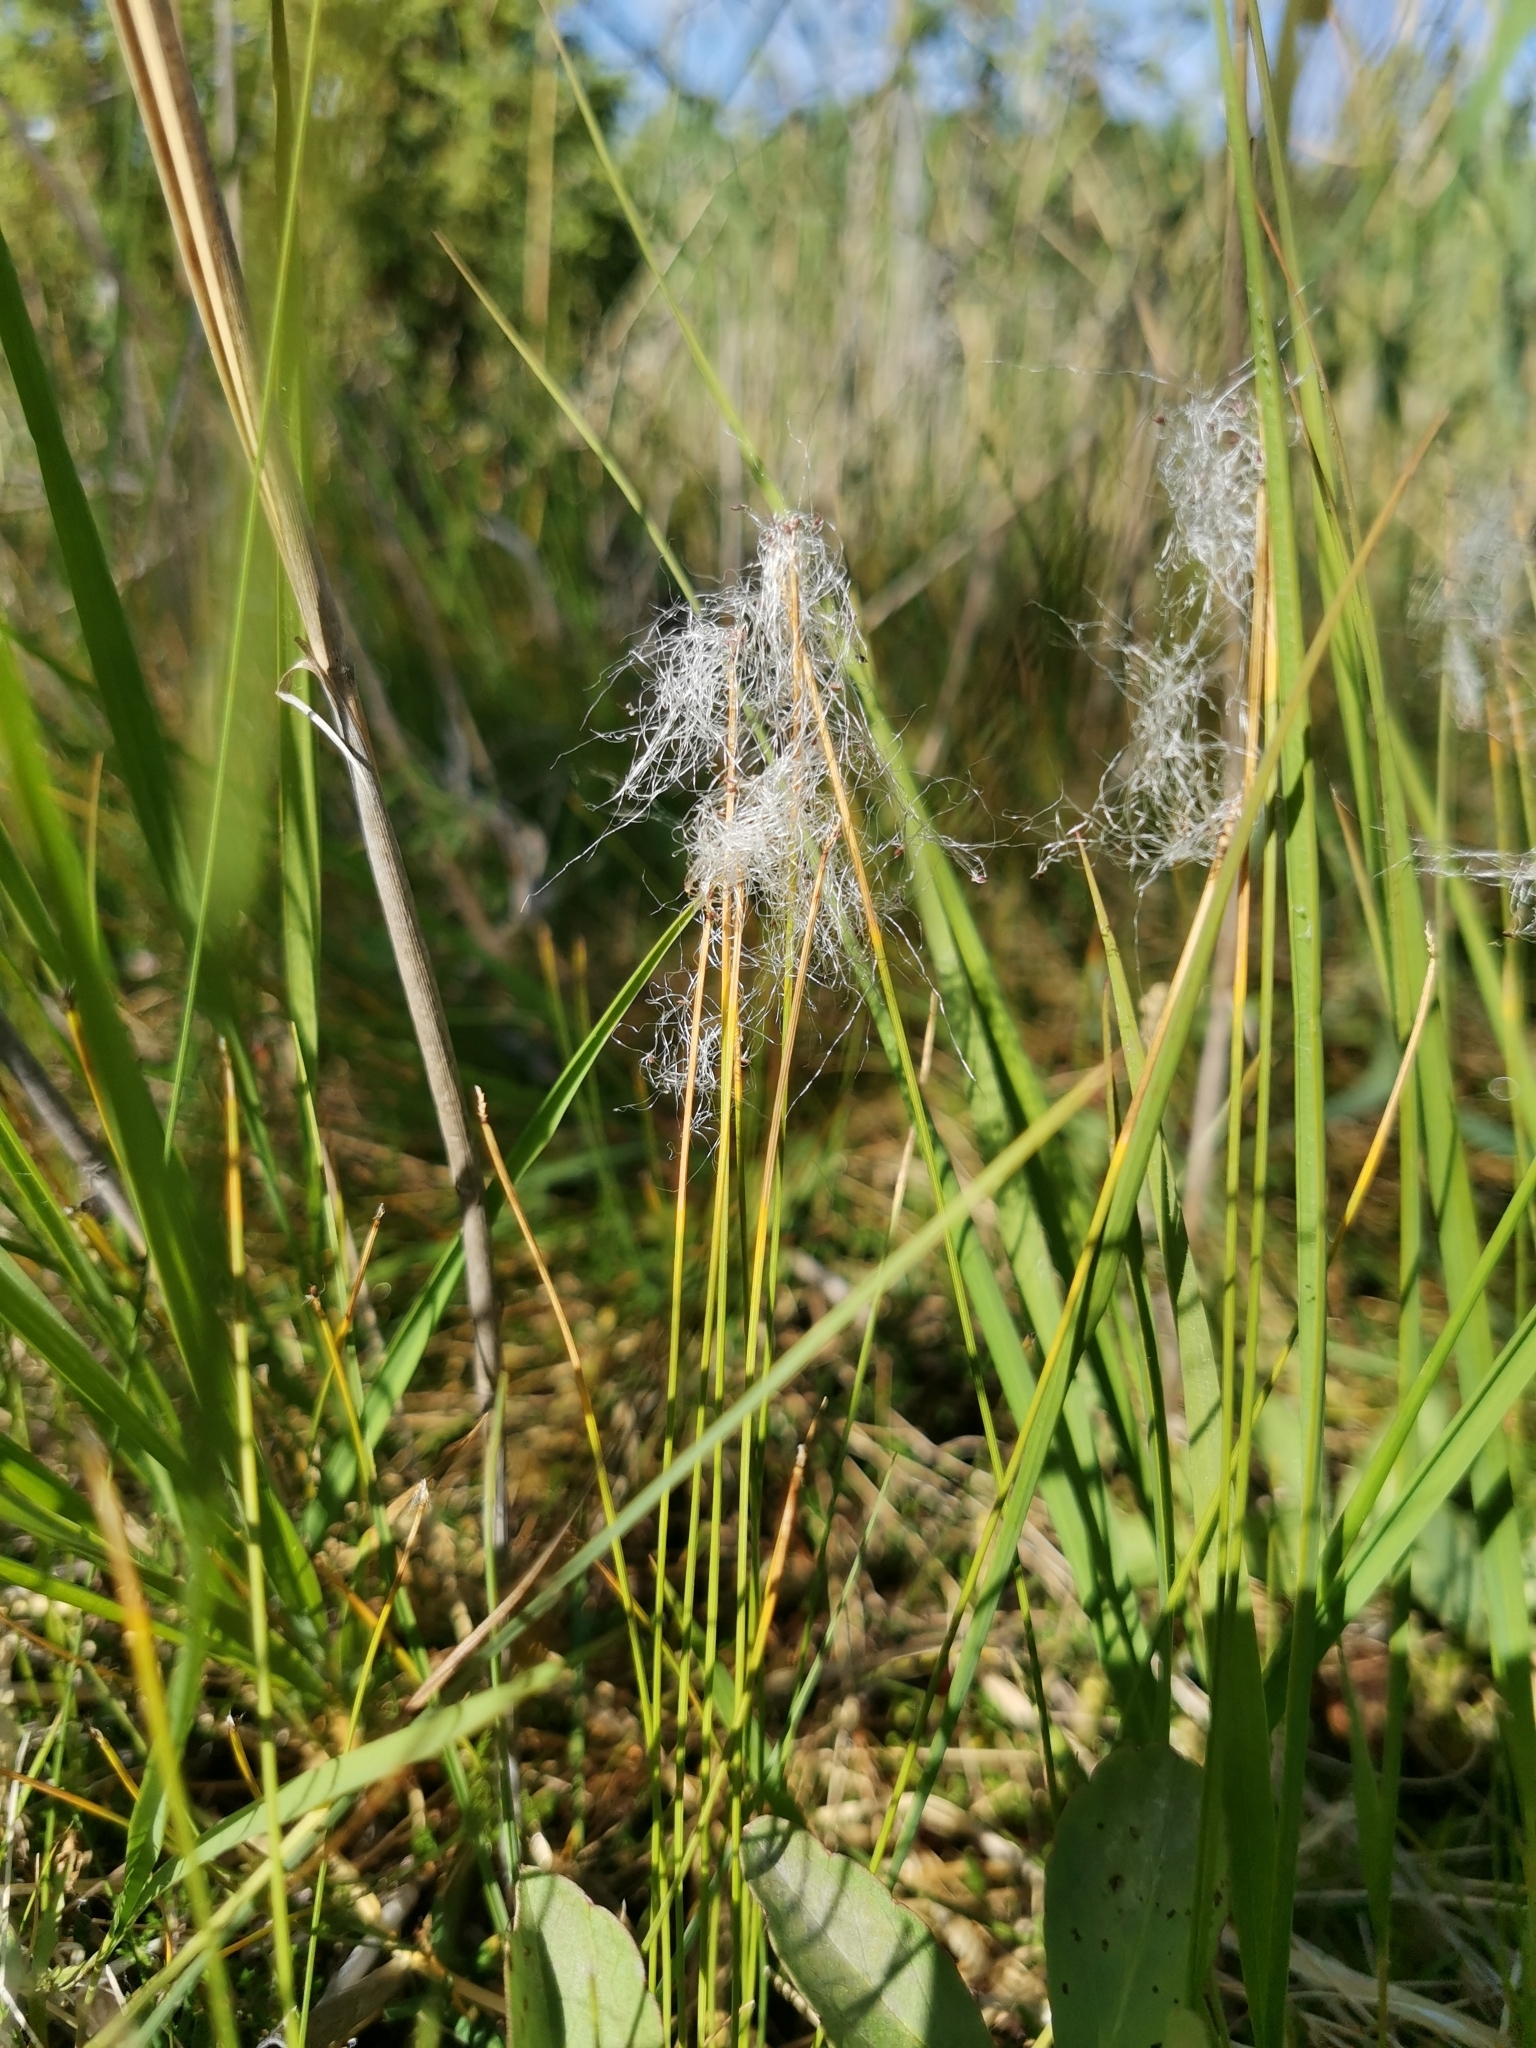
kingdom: Plantae
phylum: Tracheophyta
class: Liliopsida
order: Poales
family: Cyperaceae
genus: Trichophorum
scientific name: Trichophorum alpinum
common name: Alpine bulrush
